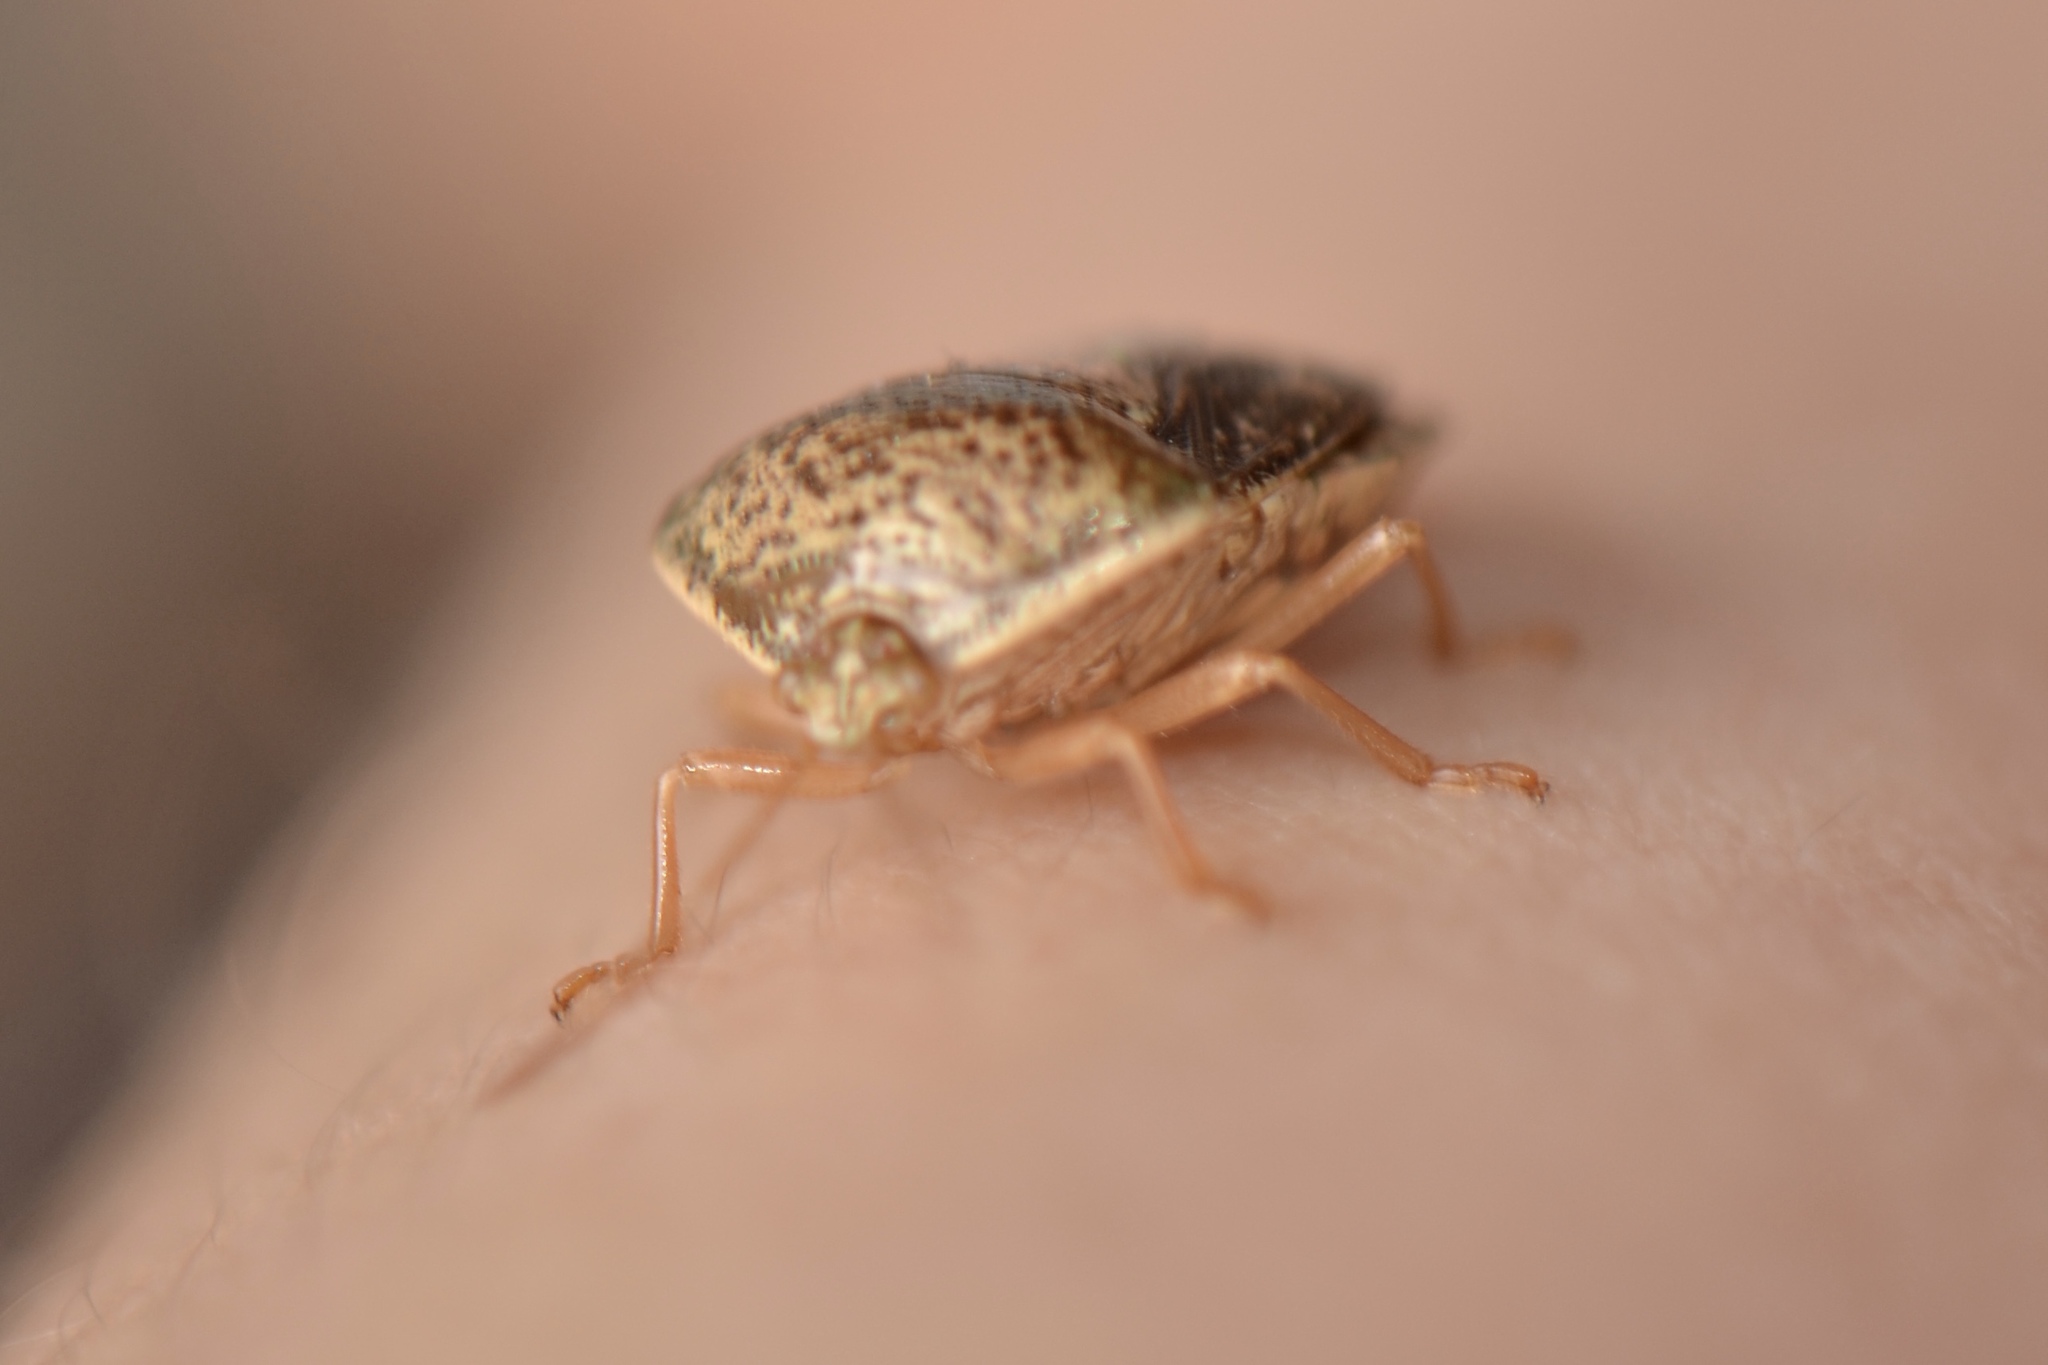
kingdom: Animalia
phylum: Arthropoda
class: Insecta
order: Hemiptera
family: Pentatomidae
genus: Edessa
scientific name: Edessa bifida
